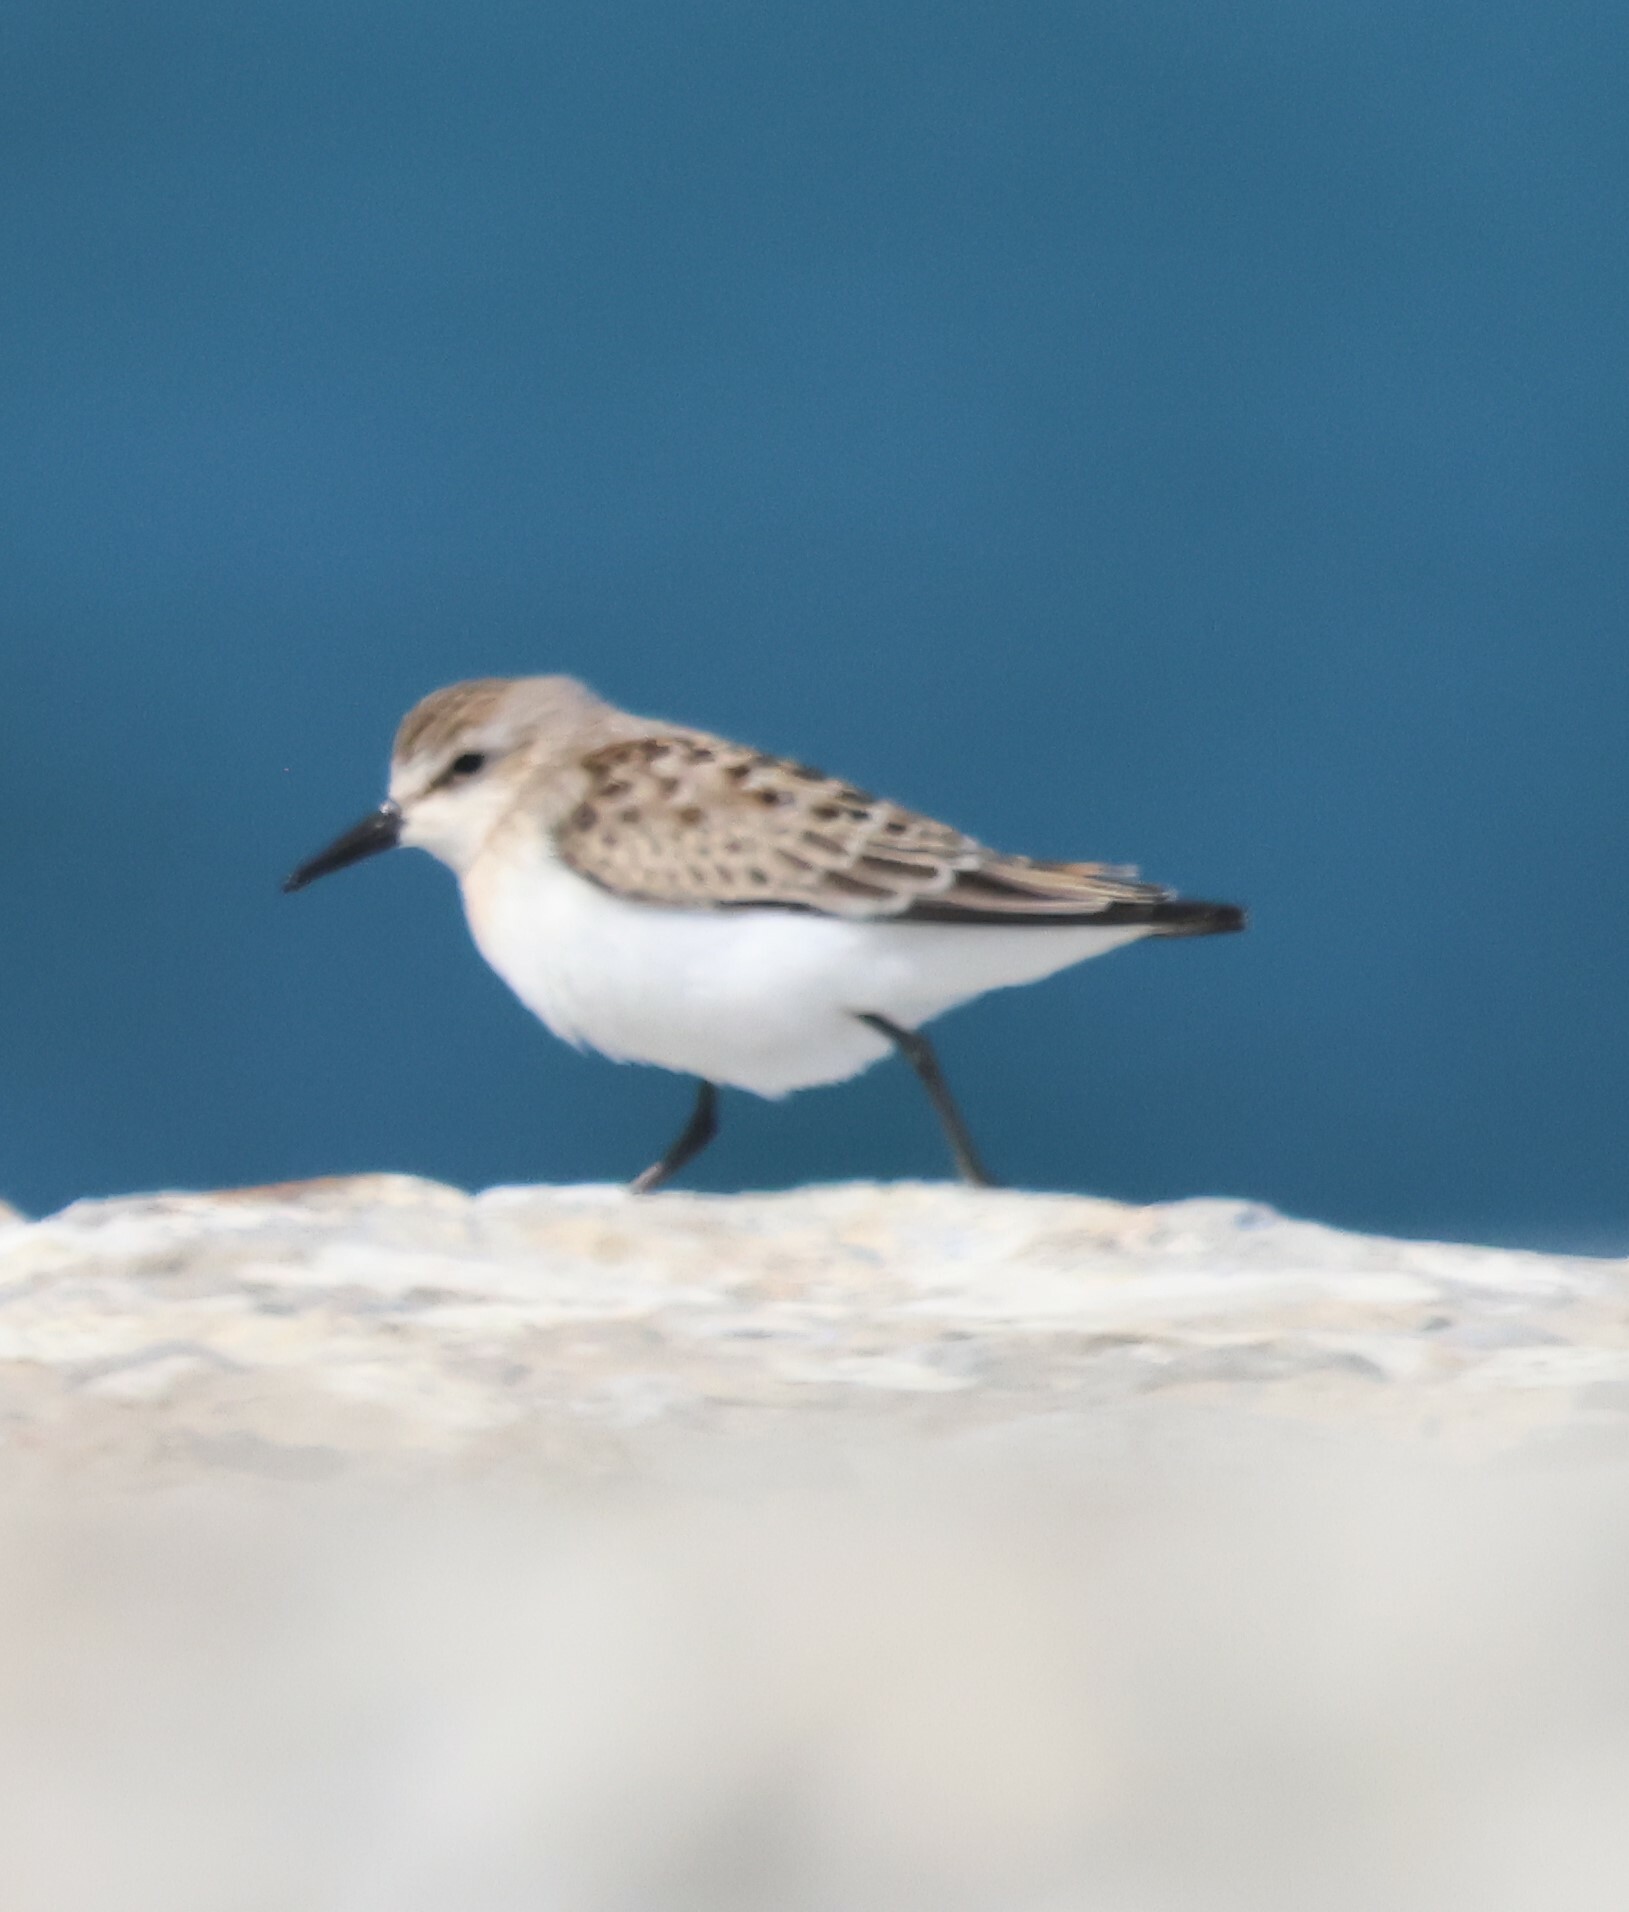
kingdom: Animalia
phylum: Chordata
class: Aves
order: Charadriiformes
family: Scolopacidae
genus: Calidris
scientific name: Calidris pusilla
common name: Semipalmated sandpiper
